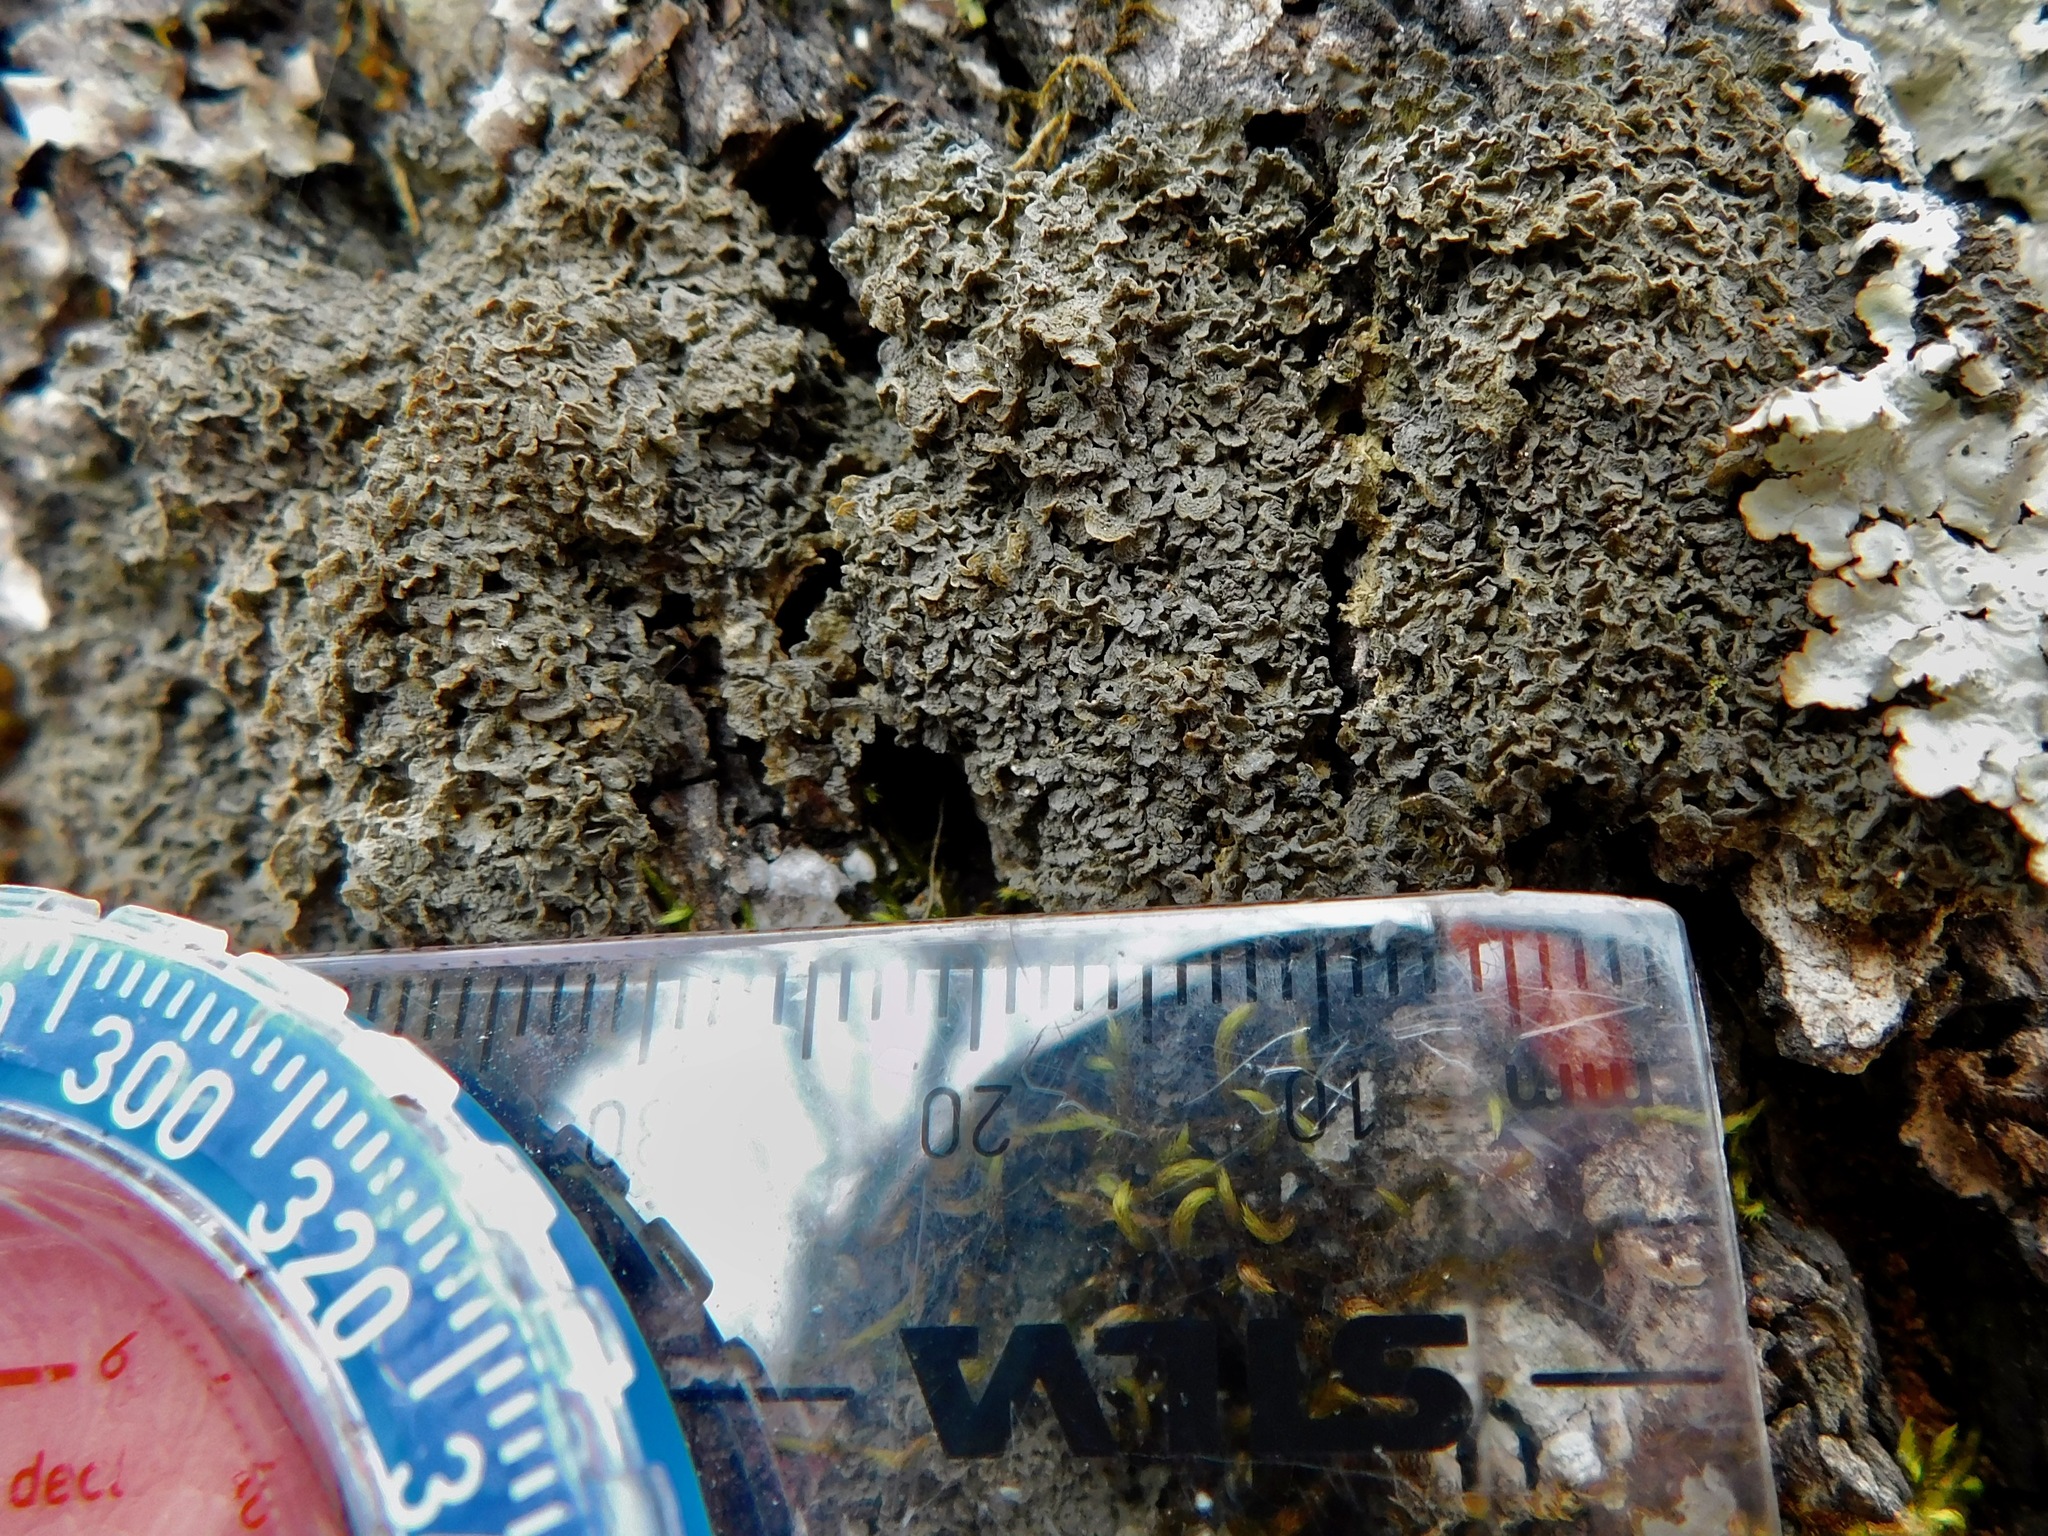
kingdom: Fungi
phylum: Ascomycota
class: Lecanoromycetes
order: Peltigerales
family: Collemataceae
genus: Leptogium
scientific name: Leptogium austroamericanum
